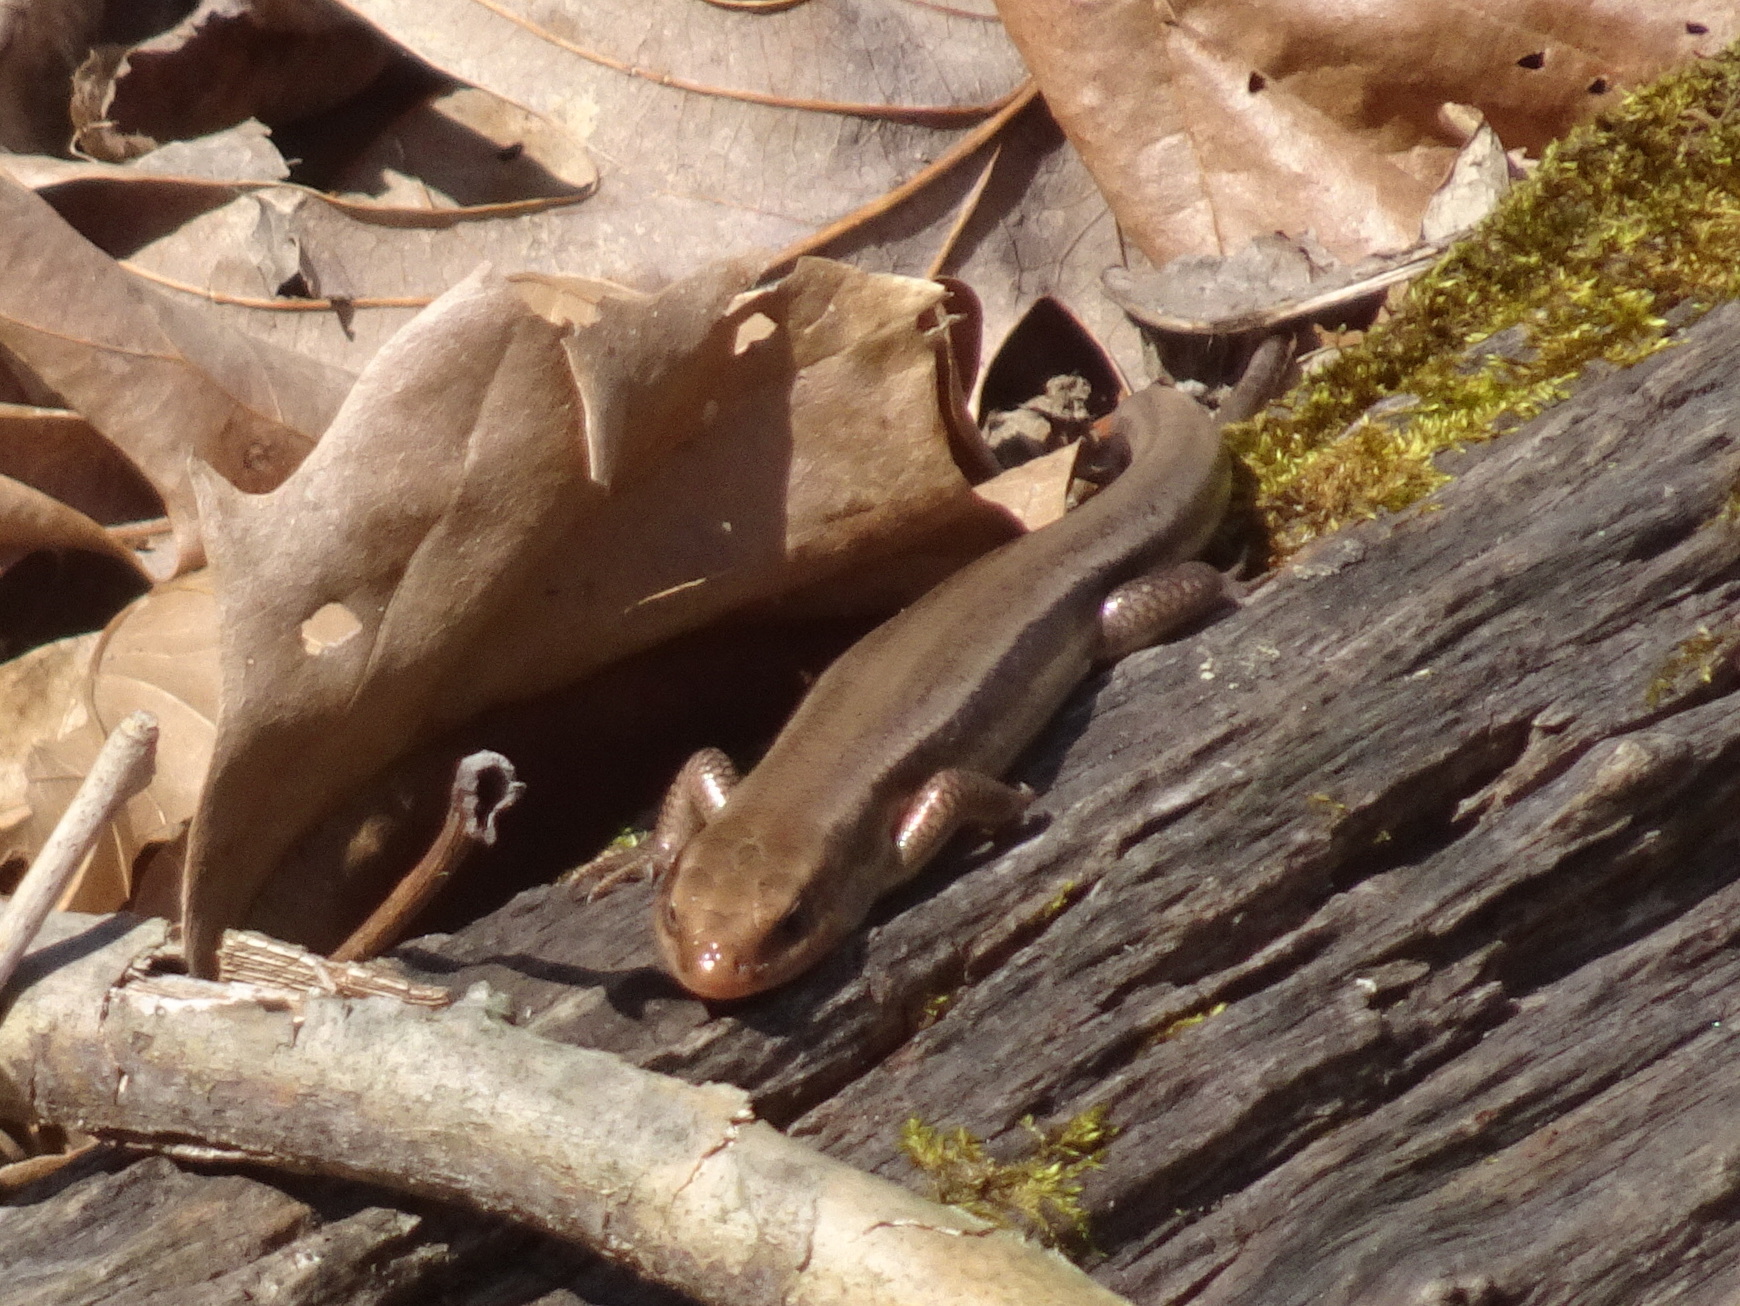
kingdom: Animalia
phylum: Chordata
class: Squamata
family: Scincidae
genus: Plestiodon
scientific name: Plestiodon fasciatus
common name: Five-lined skink
